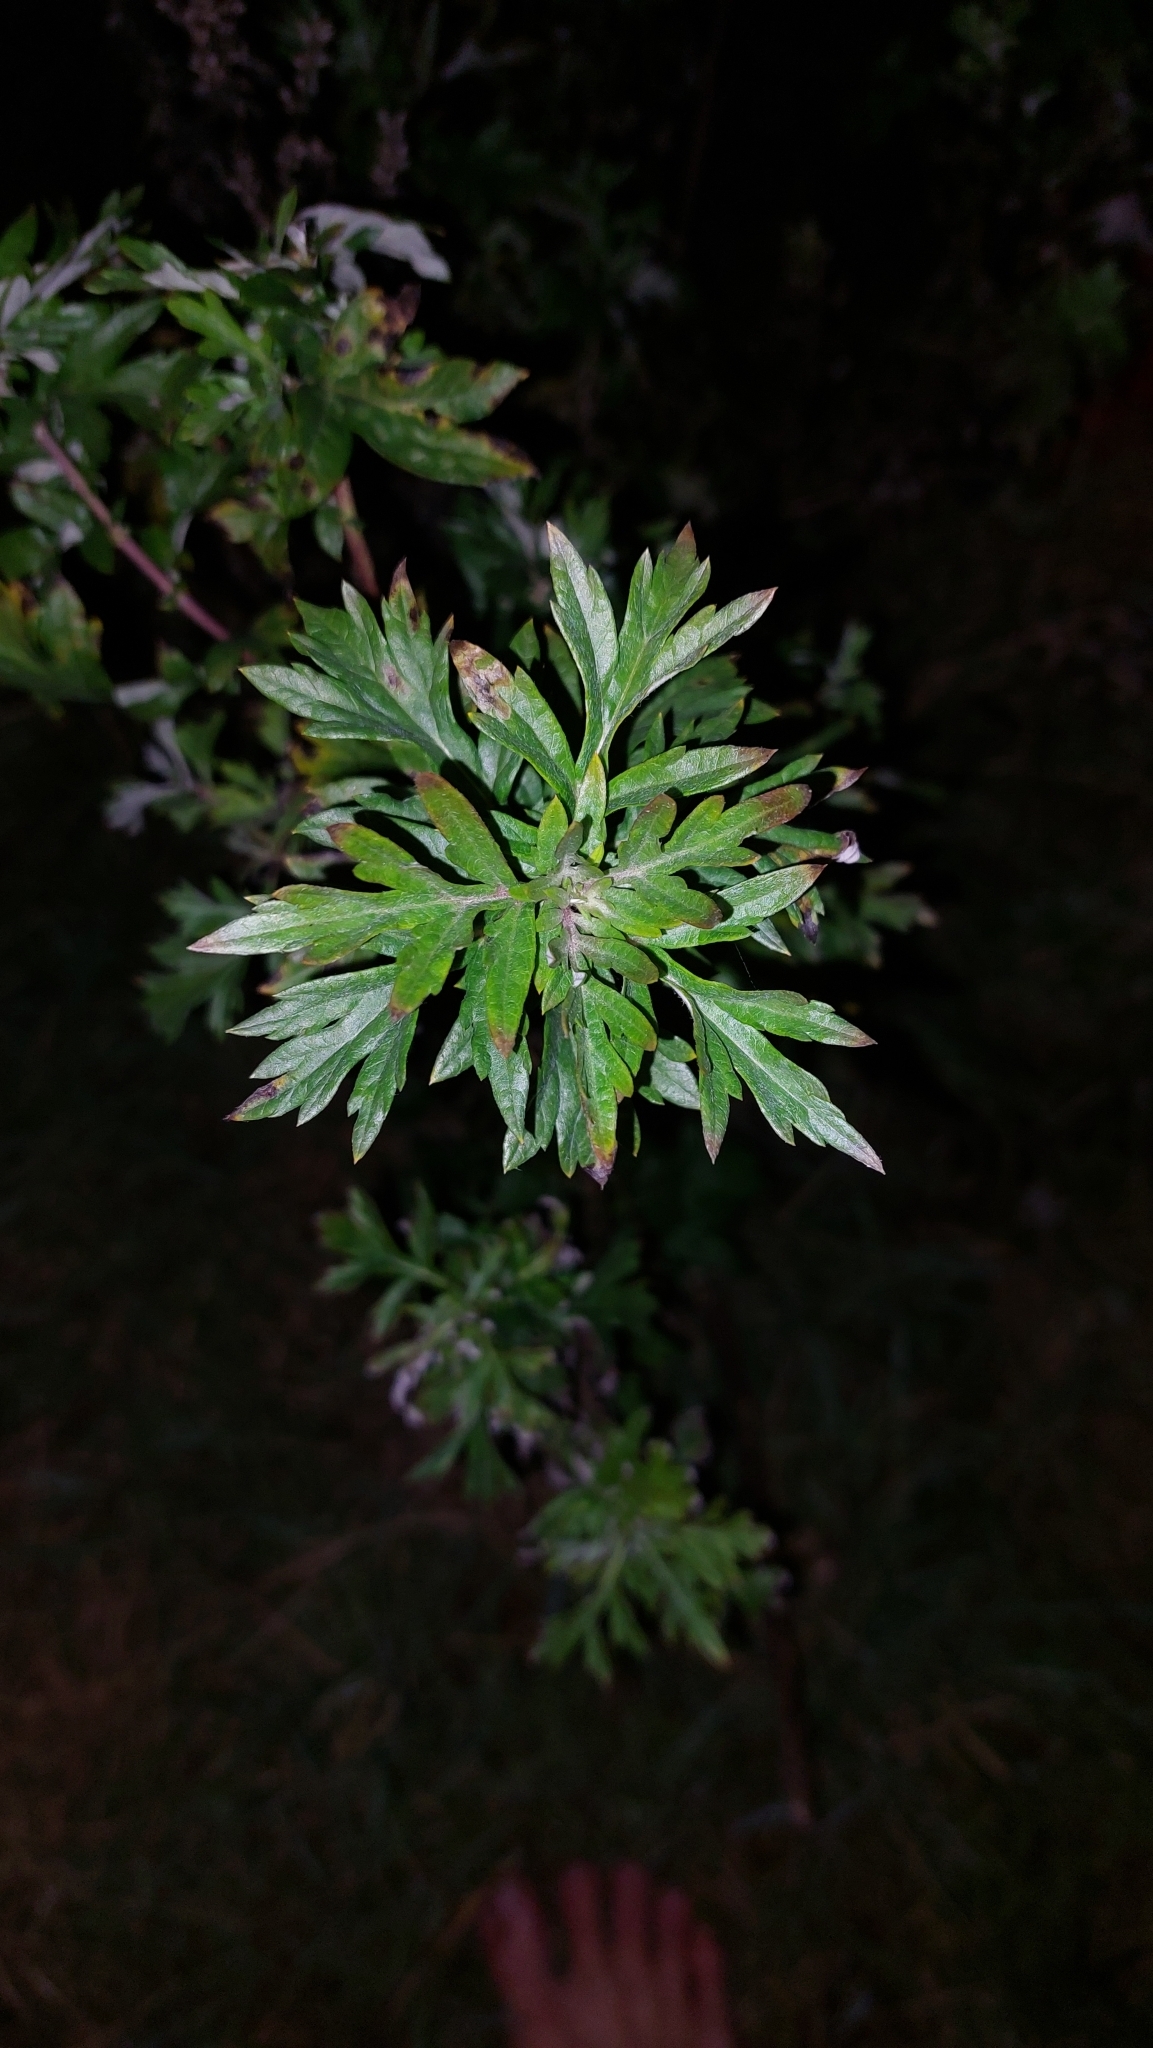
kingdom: Plantae
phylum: Tracheophyta
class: Magnoliopsida
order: Asterales
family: Asteraceae
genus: Artemisia
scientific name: Artemisia vulgaris
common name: Mugwort
